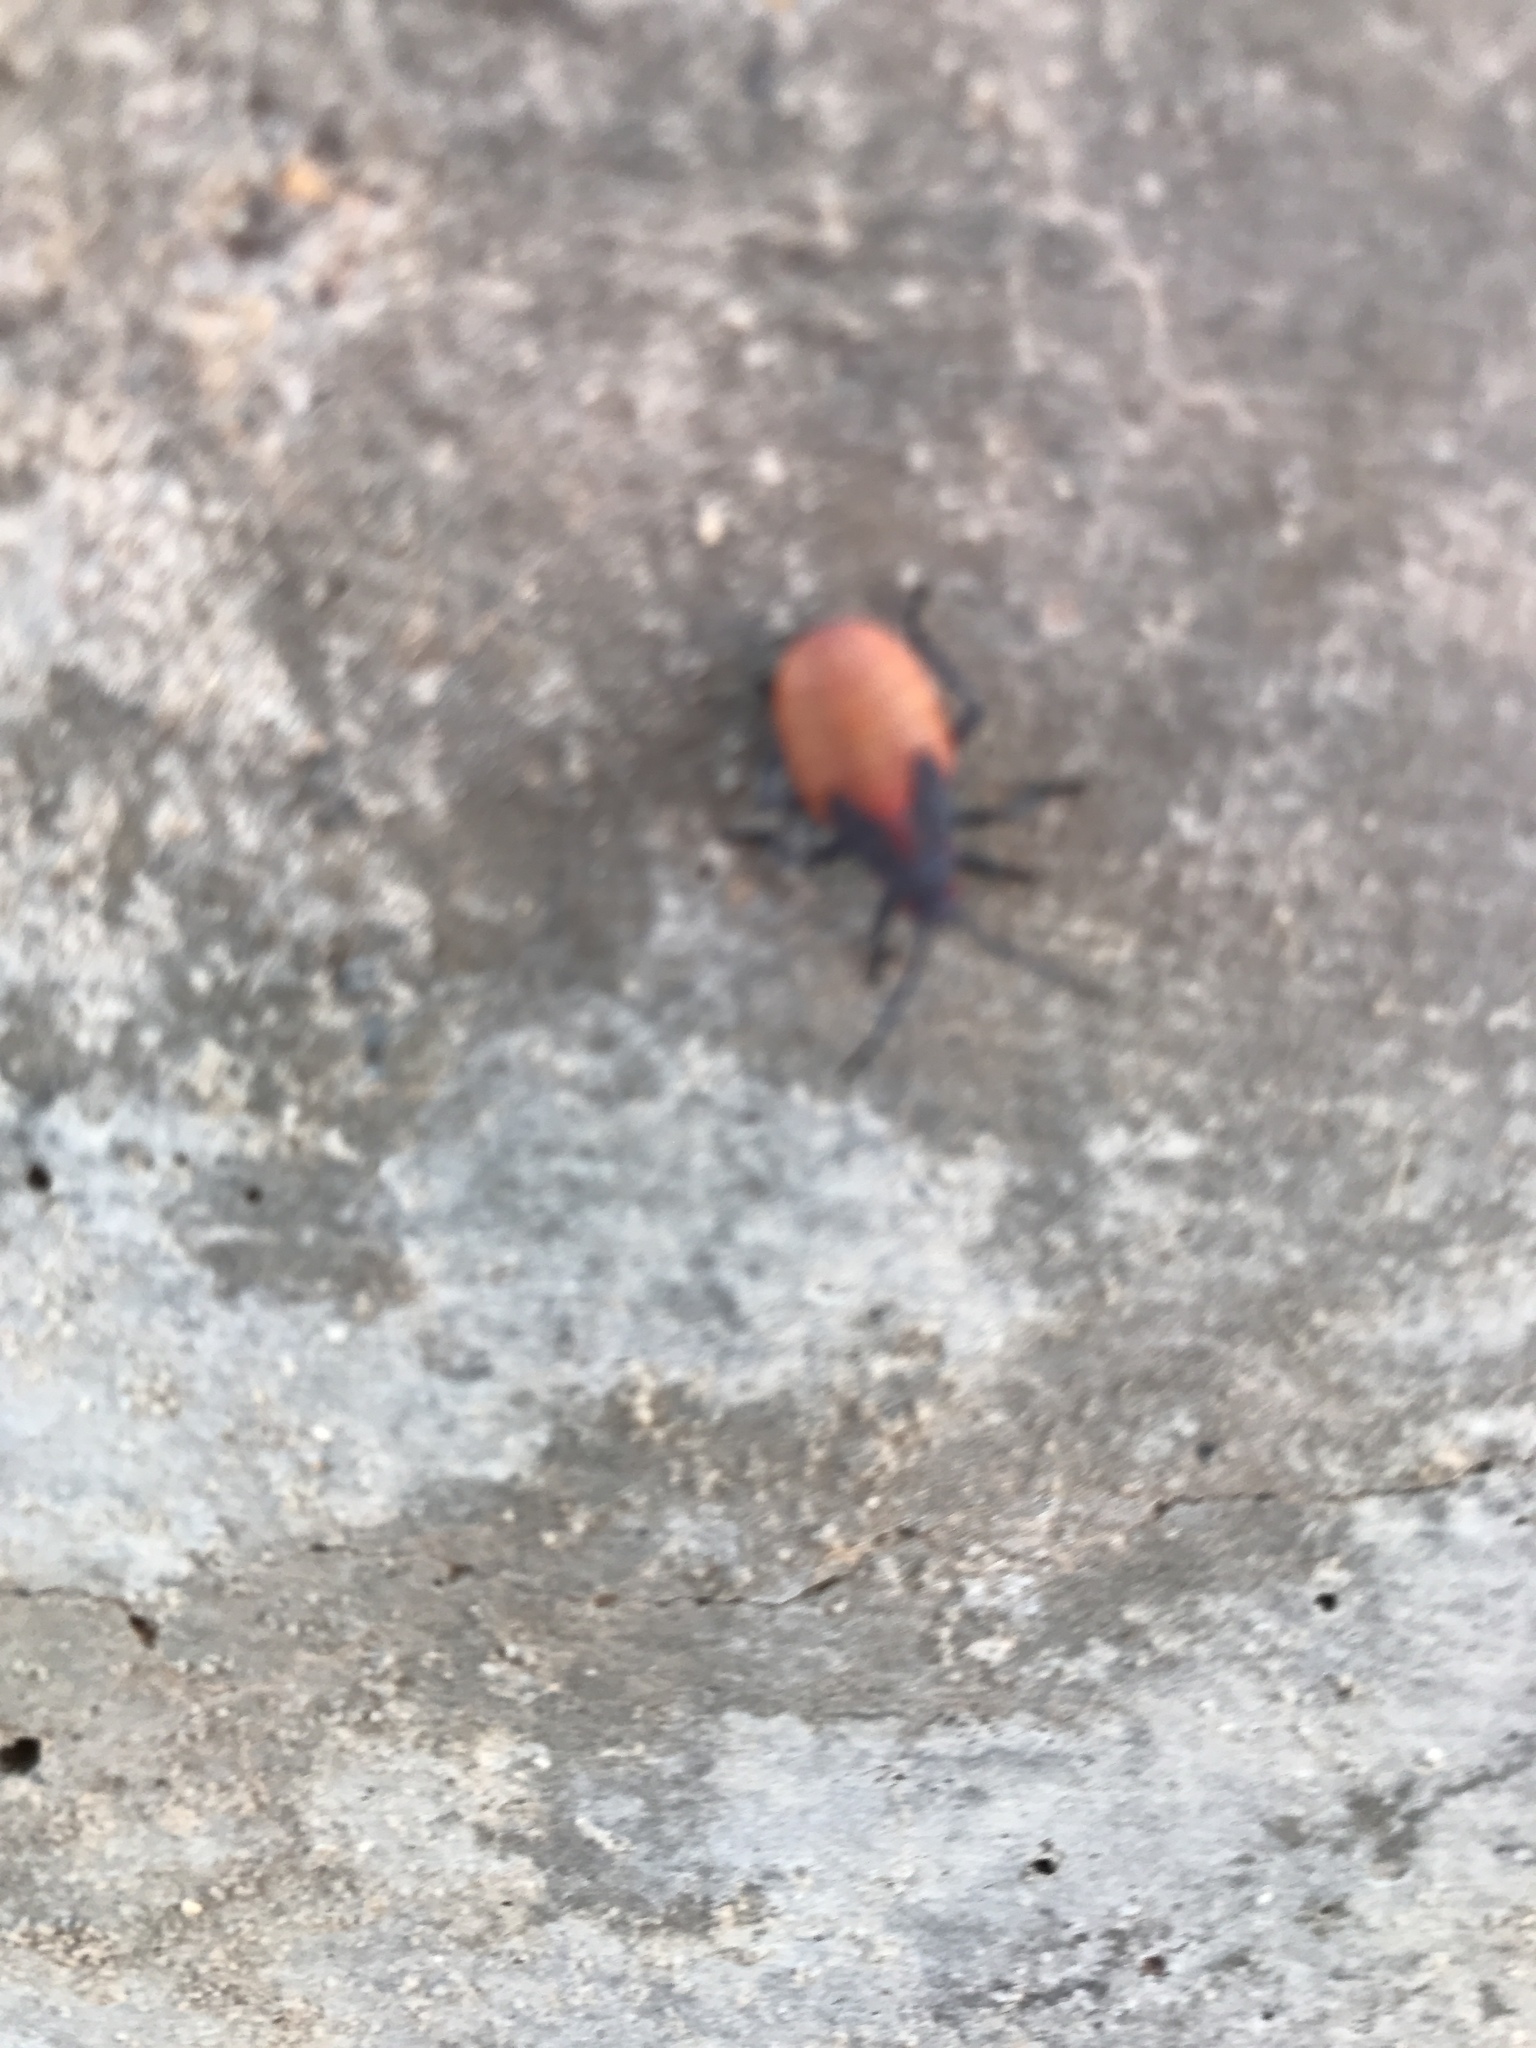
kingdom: Animalia
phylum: Arthropoda
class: Insecta
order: Hemiptera
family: Rhopalidae
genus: Jadera
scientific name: Jadera haematoloma
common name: Red-shouldered bug
